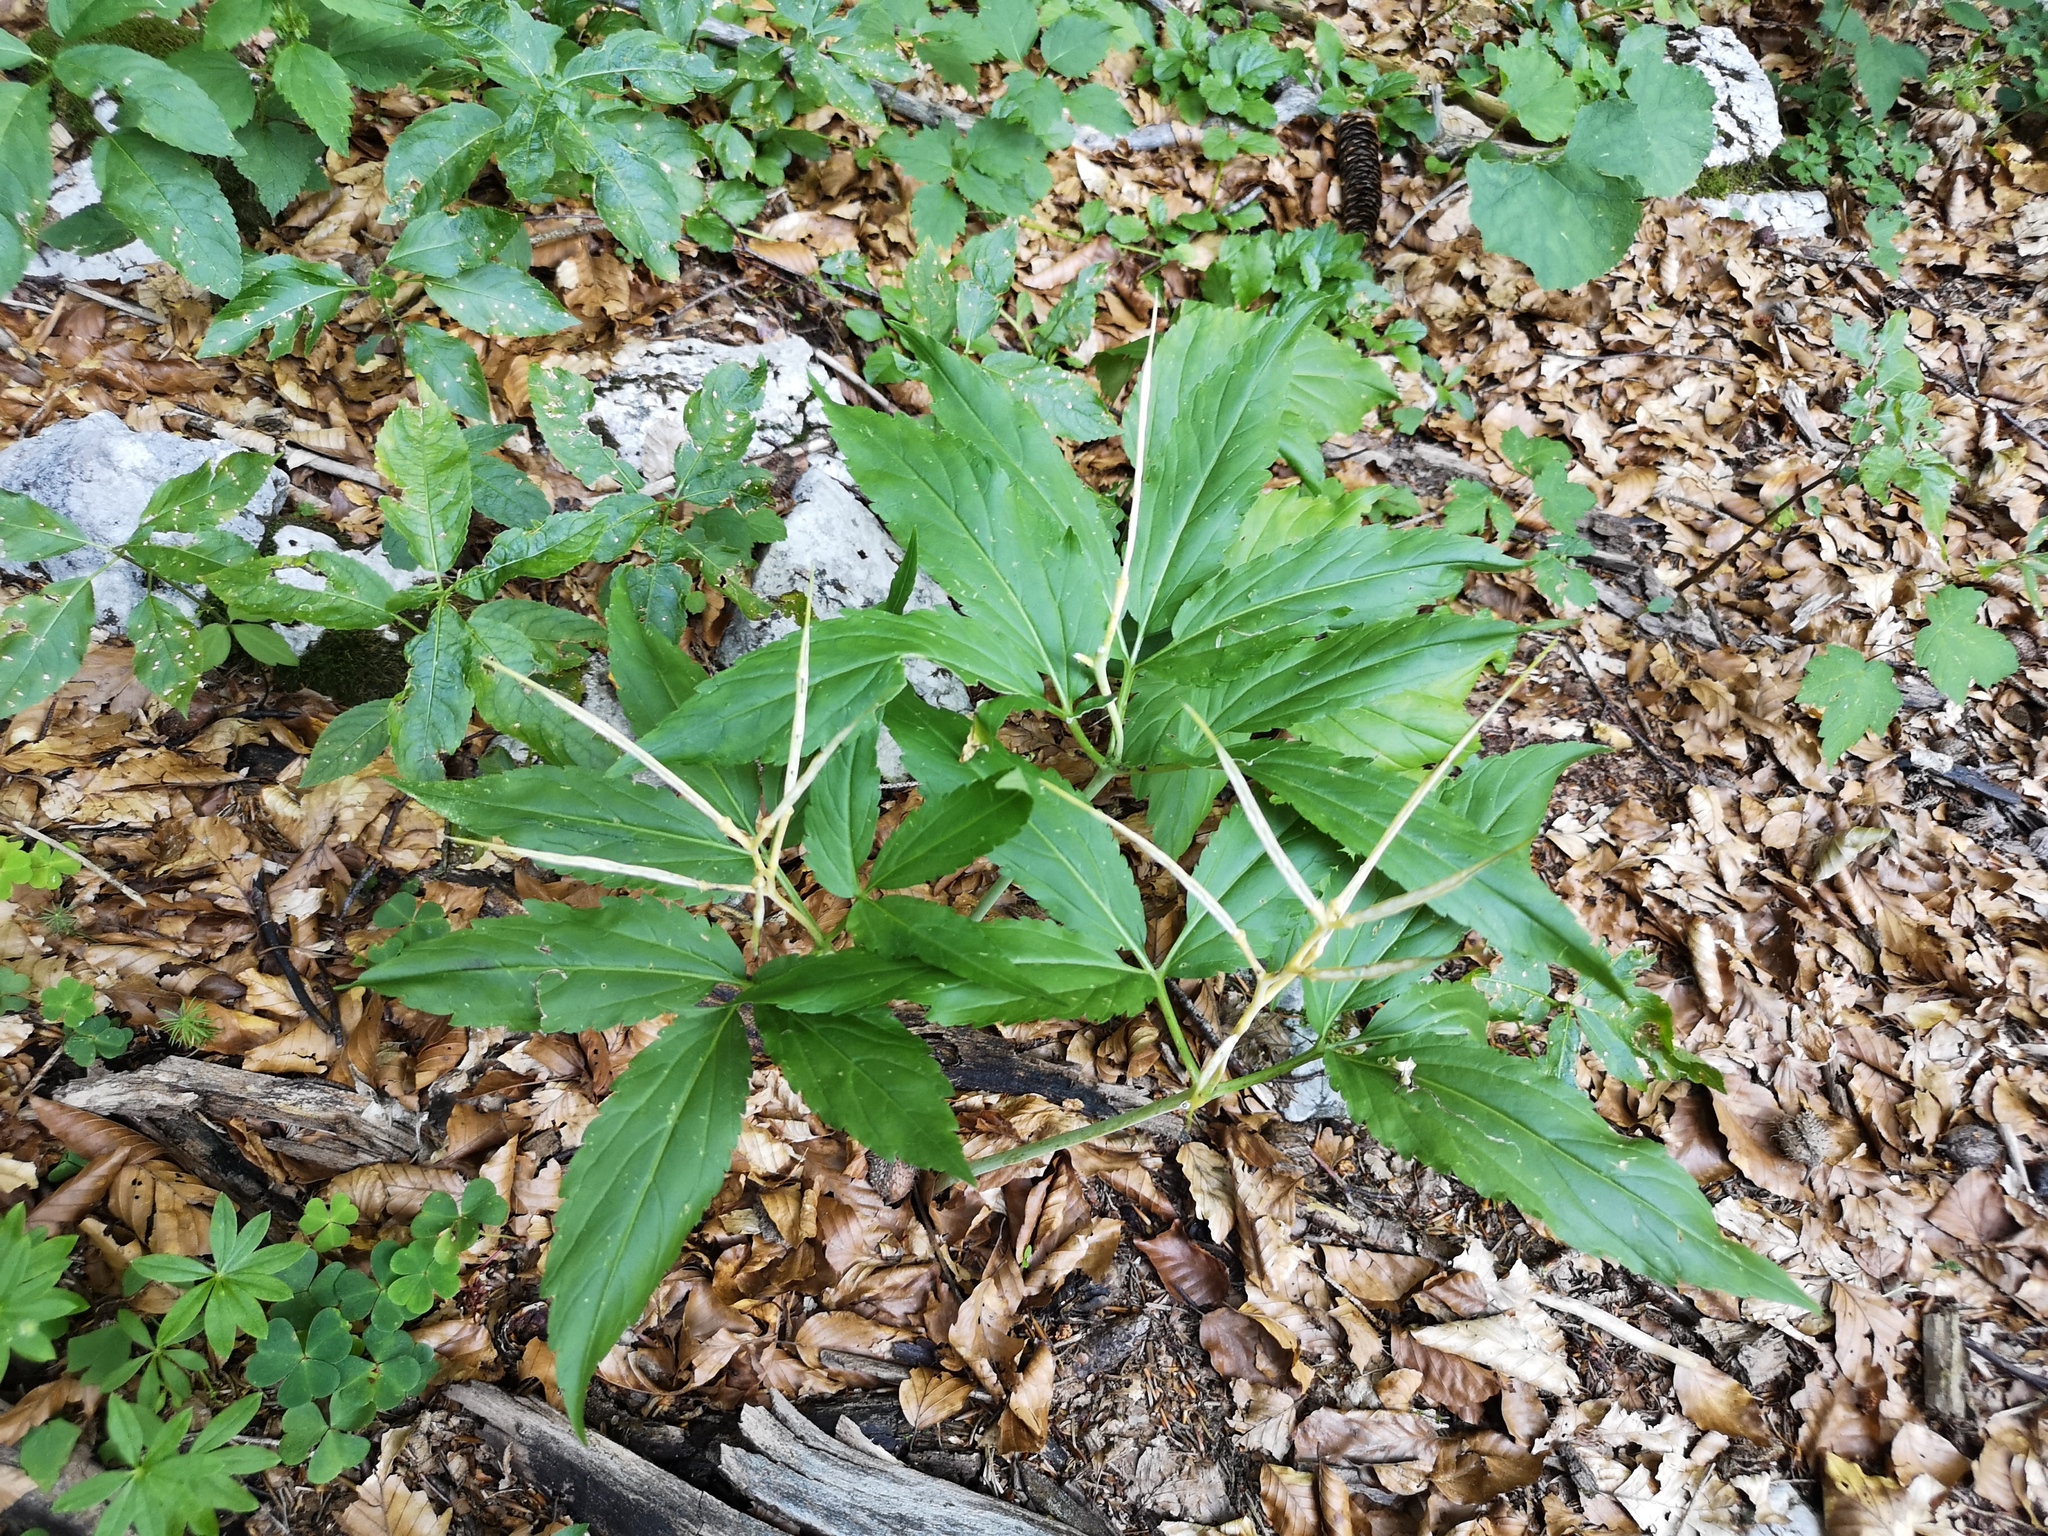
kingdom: Plantae
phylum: Tracheophyta
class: Magnoliopsida
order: Brassicales
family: Brassicaceae
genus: Cardamine
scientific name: Cardamine enneaphyllos
